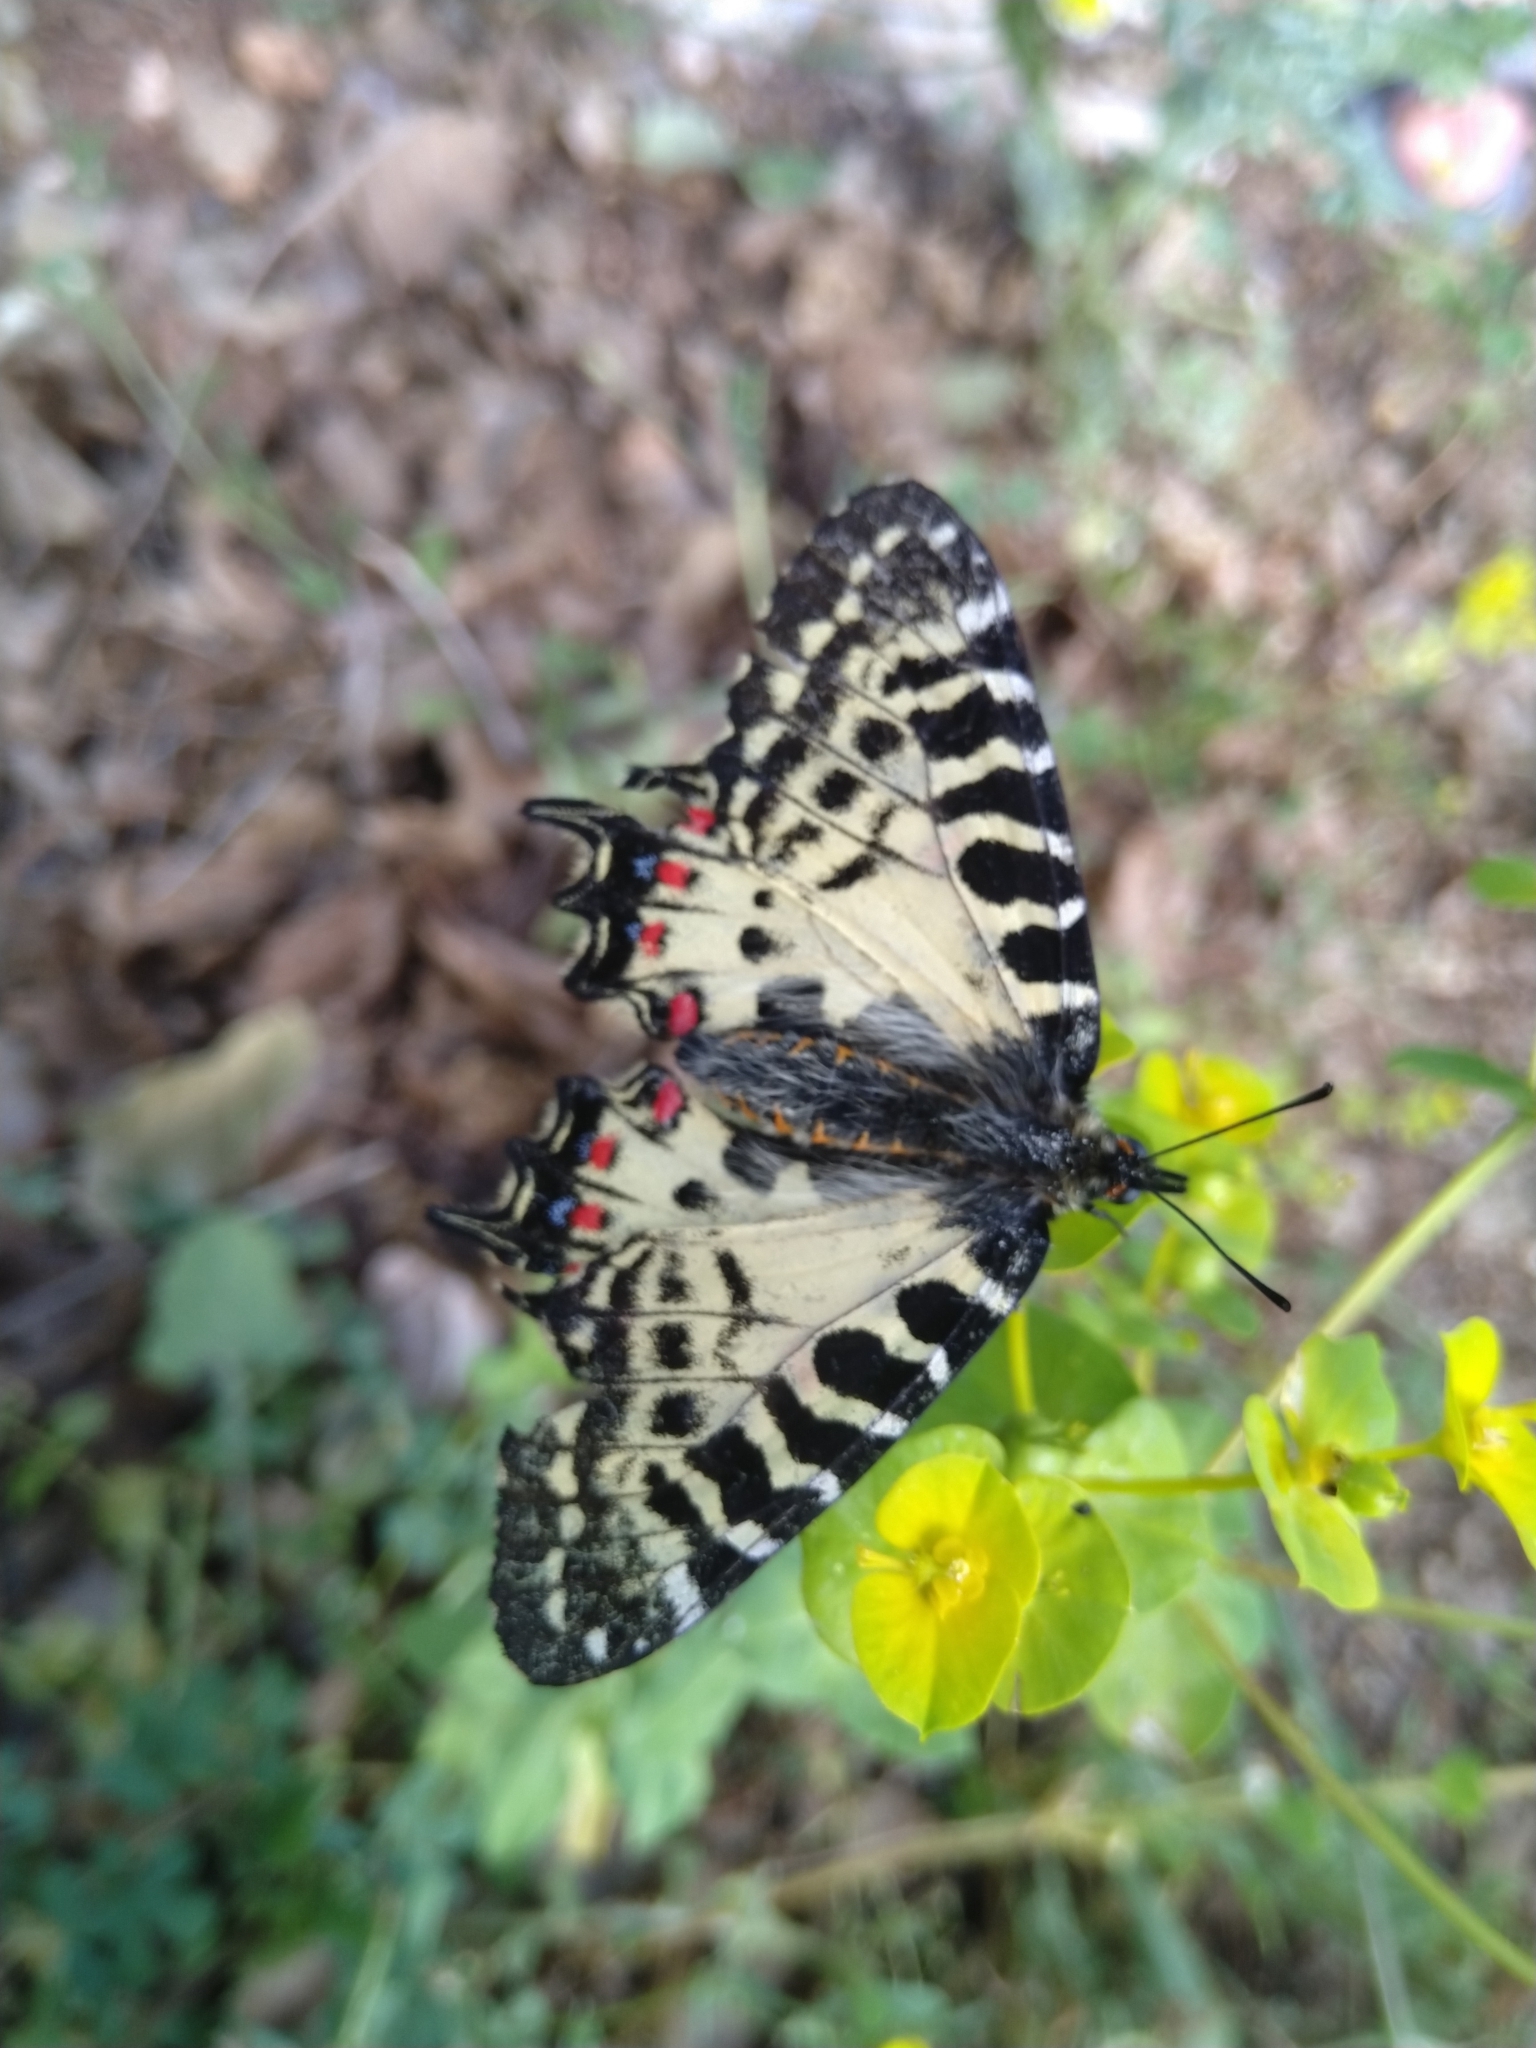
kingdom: Animalia
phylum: Arthropoda
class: Insecta
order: Lepidoptera
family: Papilionidae
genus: Zerynthia
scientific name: Zerynthia cerisy
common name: Eastern festoon
